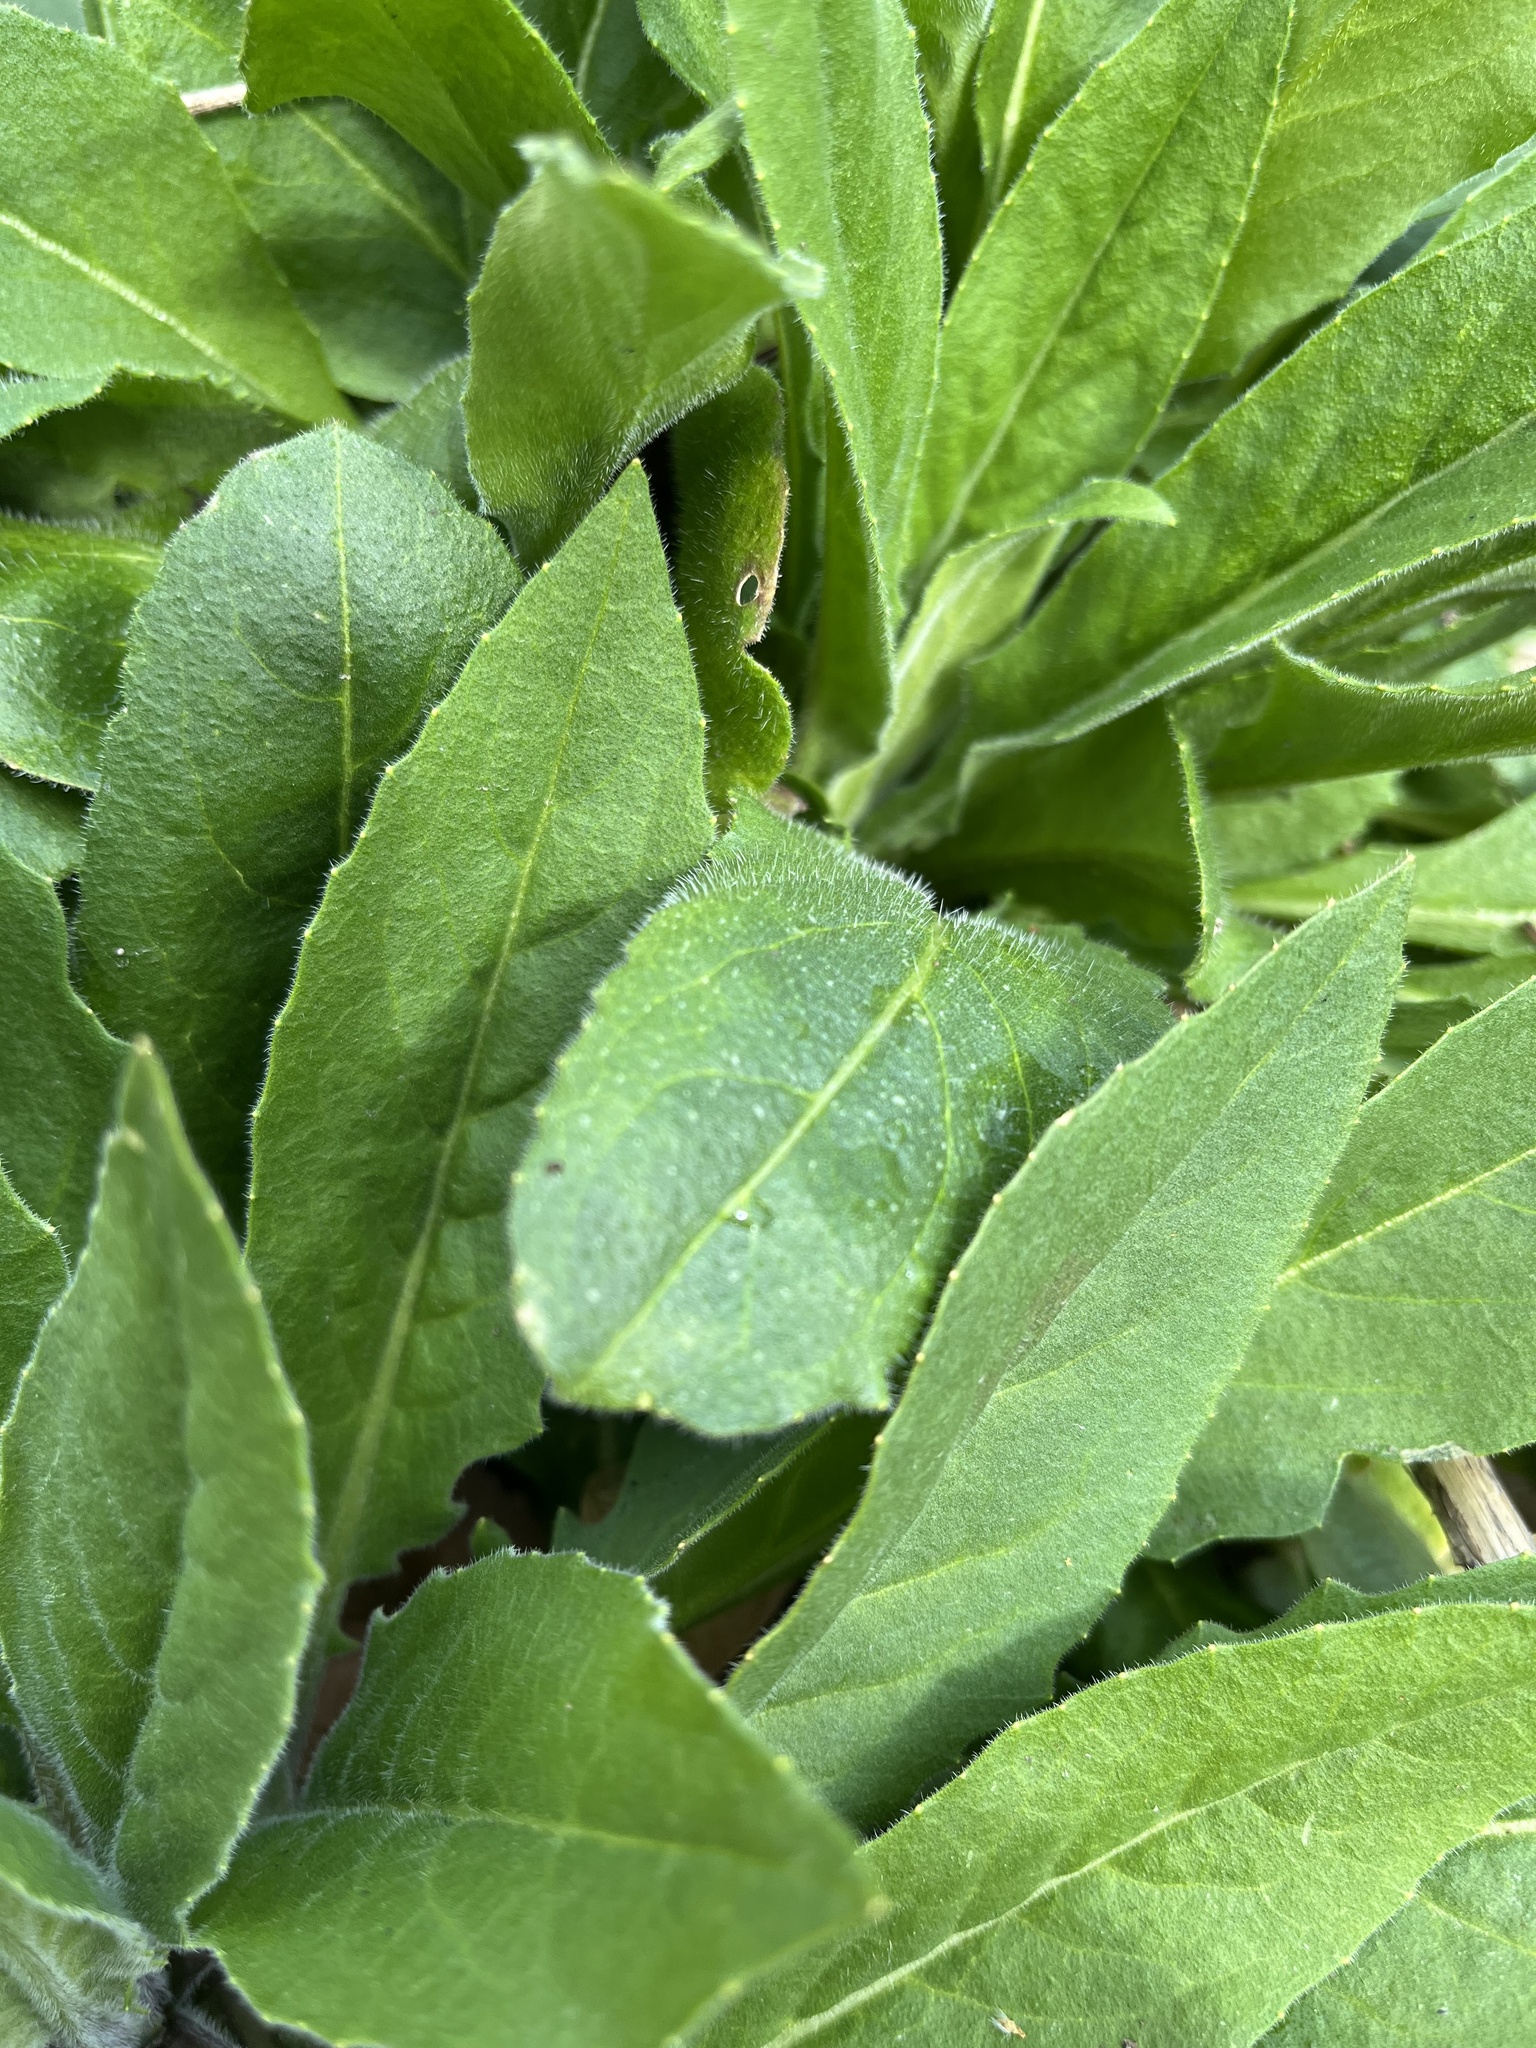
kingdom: Plantae
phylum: Tracheophyta
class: Magnoliopsida
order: Brassicales
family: Brassicaceae
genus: Hesperis
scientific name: Hesperis matronalis
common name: Dame's-violet
